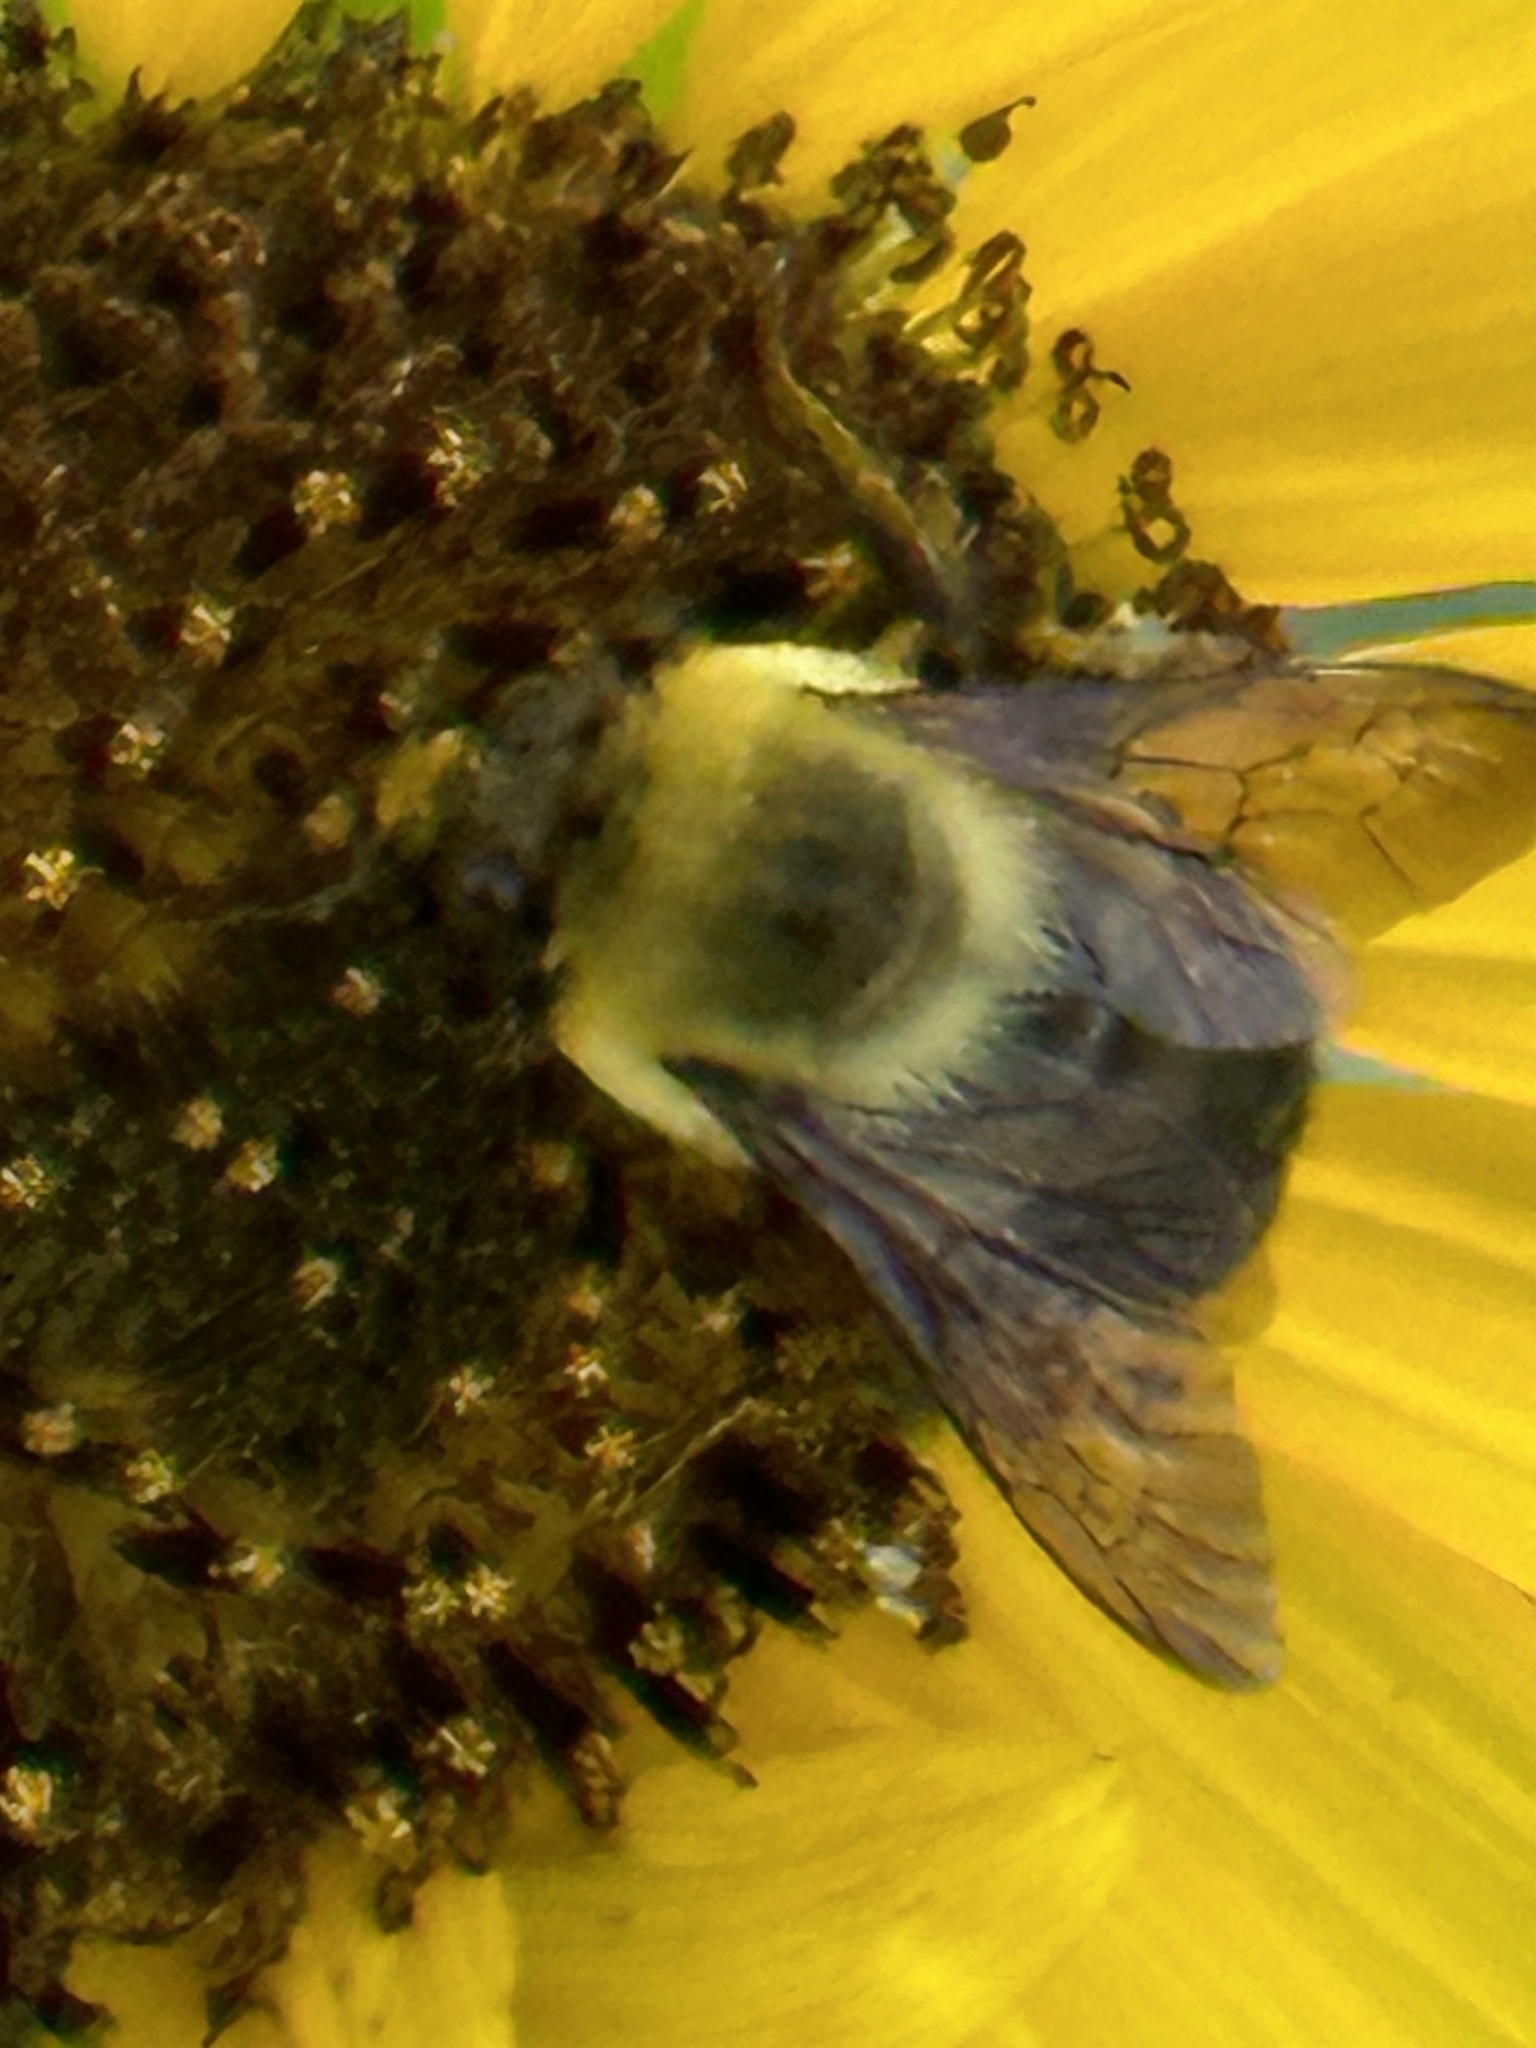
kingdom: Animalia
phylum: Arthropoda
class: Insecta
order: Hymenoptera
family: Apidae
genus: Bombus
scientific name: Bombus griseocollis
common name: Brown-belted bumble bee
